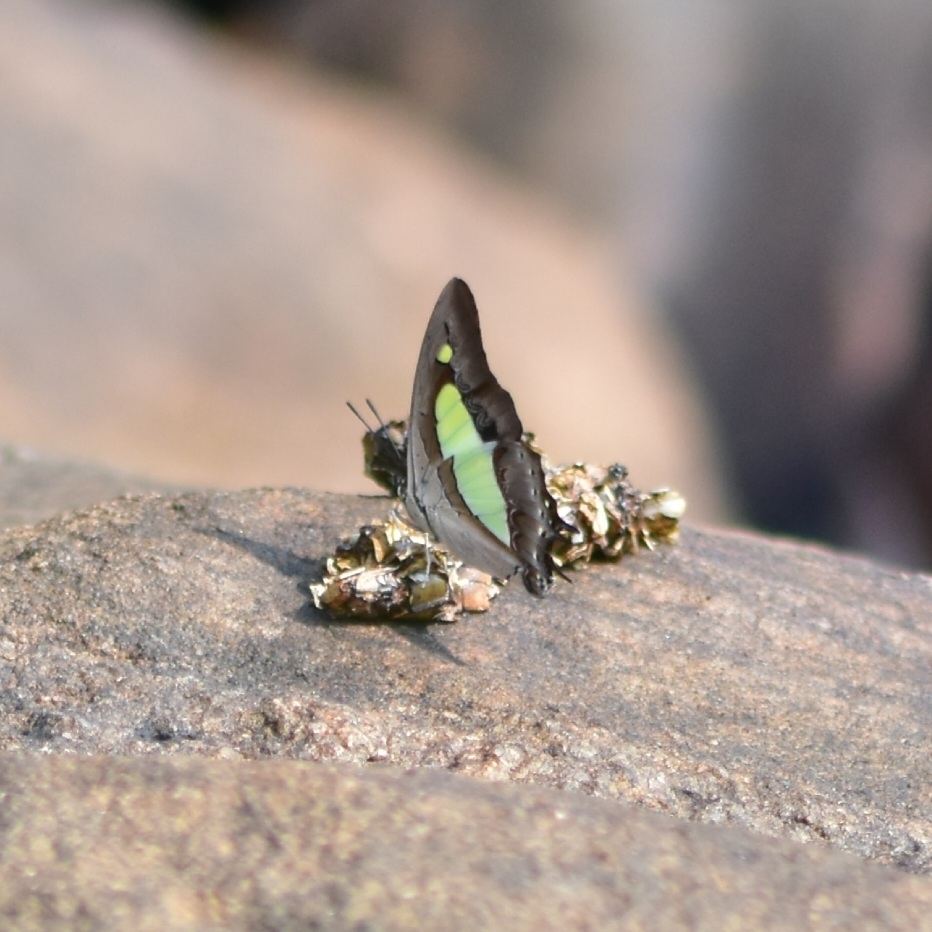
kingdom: Animalia
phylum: Arthropoda
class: Insecta
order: Lepidoptera
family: Nymphalidae
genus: Polyura
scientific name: Polyura
